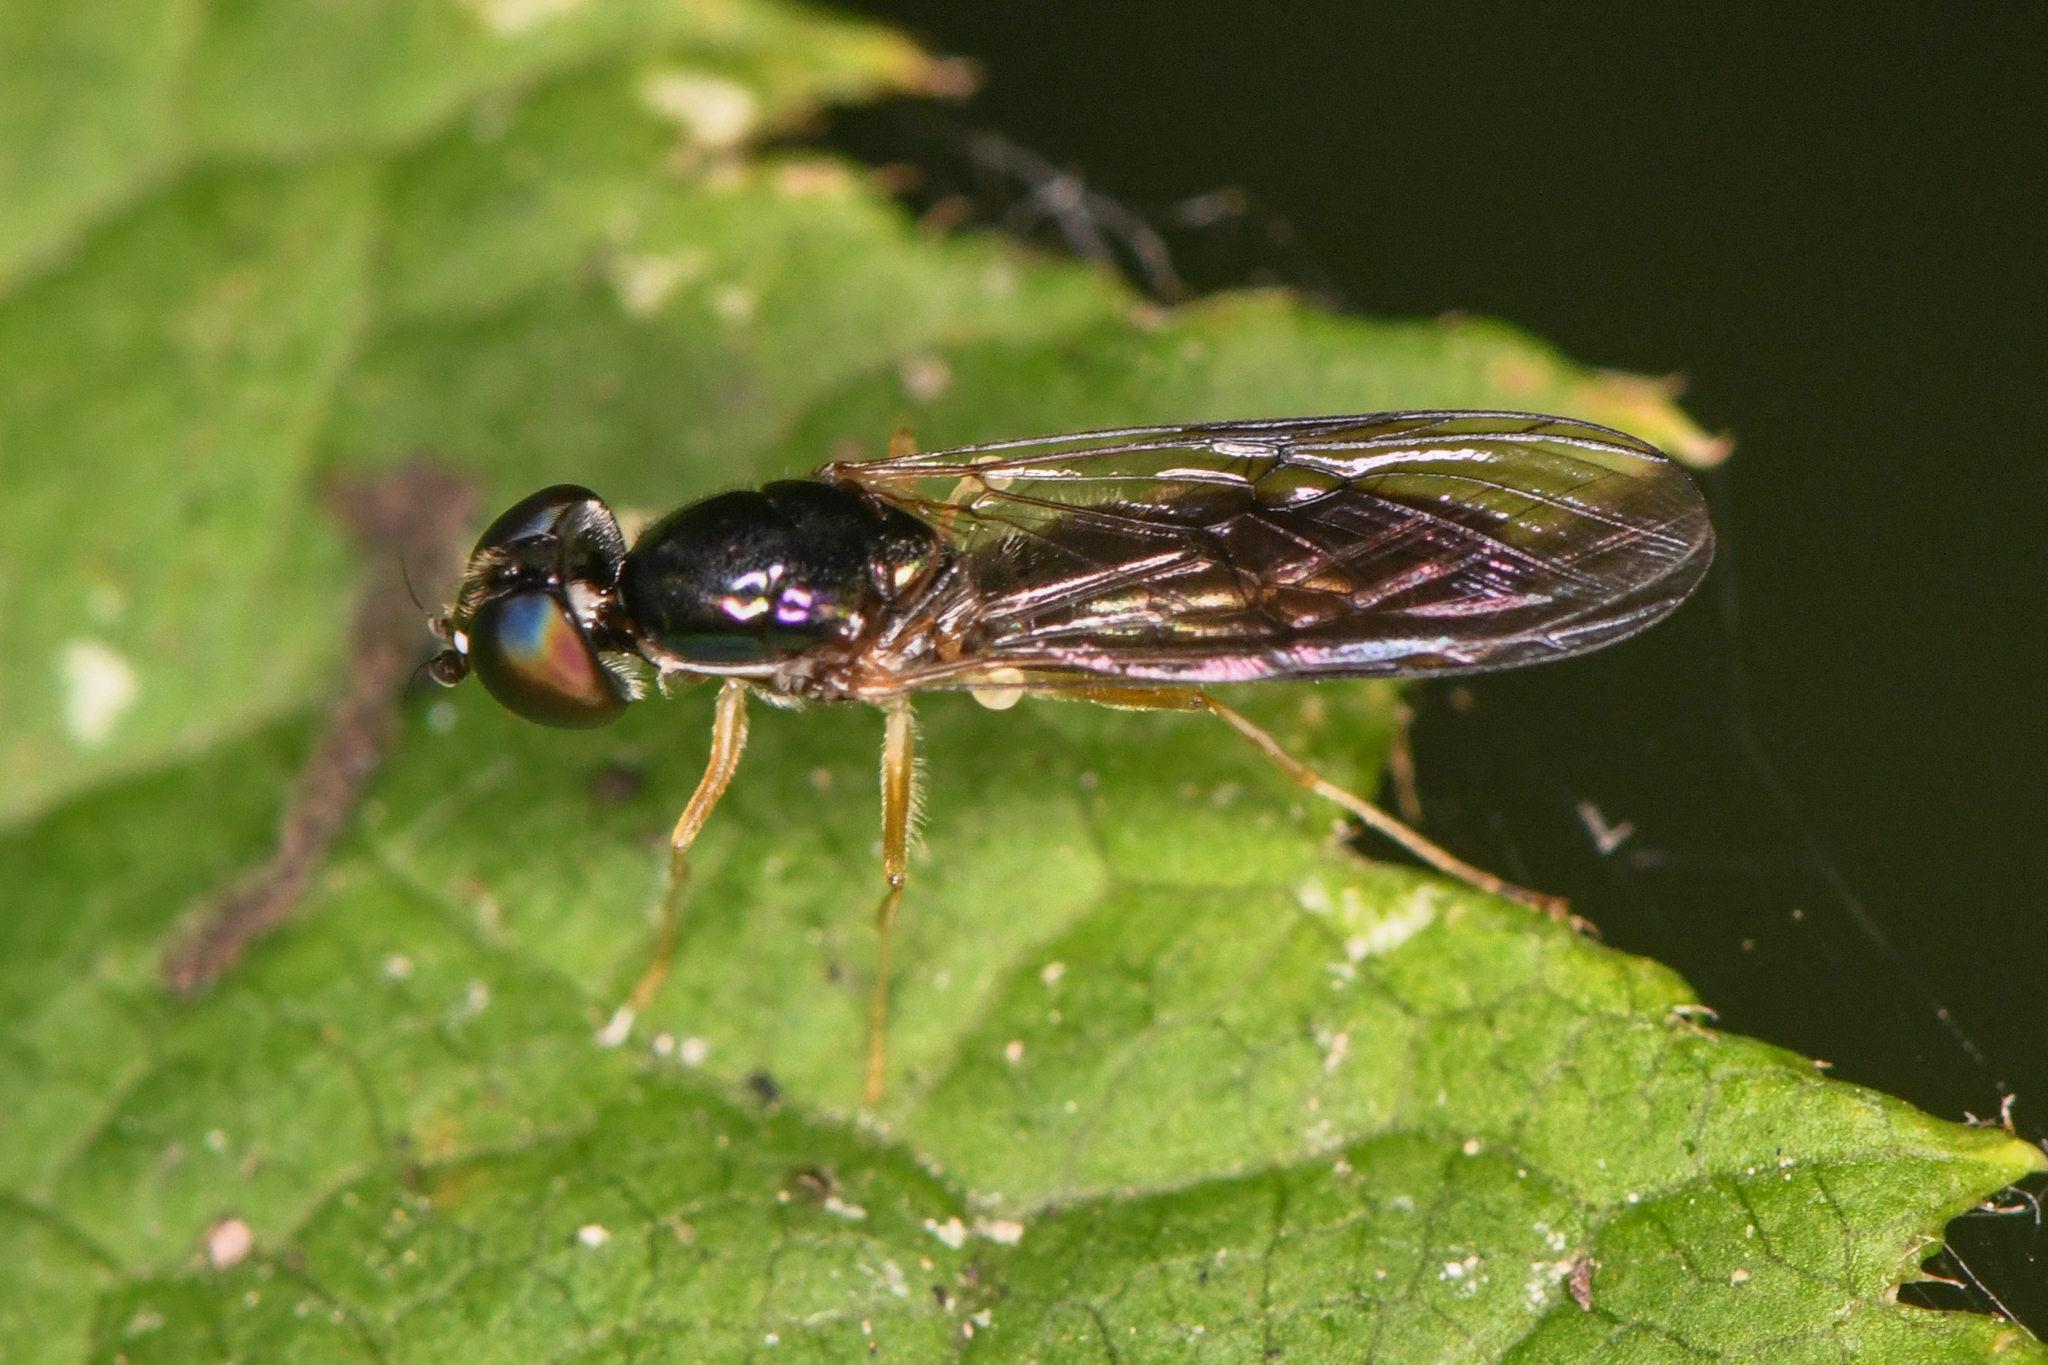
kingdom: Animalia
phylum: Arthropoda
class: Insecta
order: Diptera
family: Stratiomyidae
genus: Sargus
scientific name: Sargus decorus
